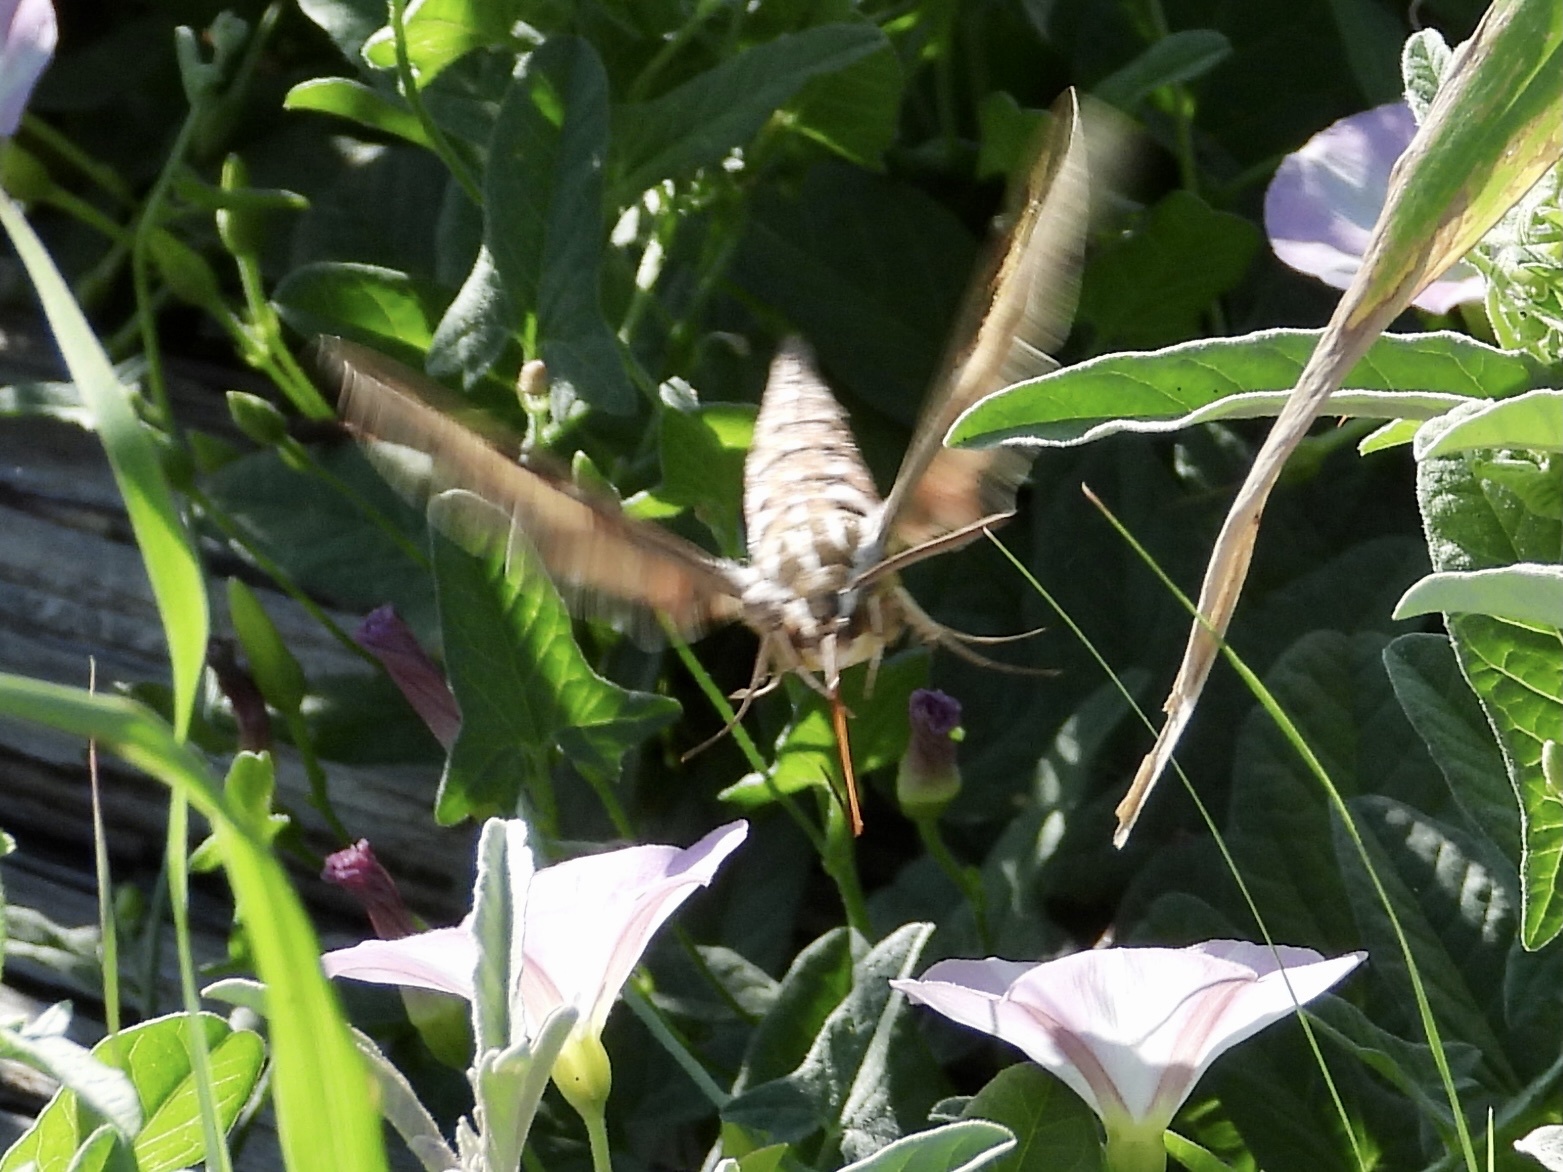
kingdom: Animalia
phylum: Arthropoda
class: Insecta
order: Lepidoptera
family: Sphingidae
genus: Hyles
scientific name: Hyles lineata
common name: White-lined sphinx
